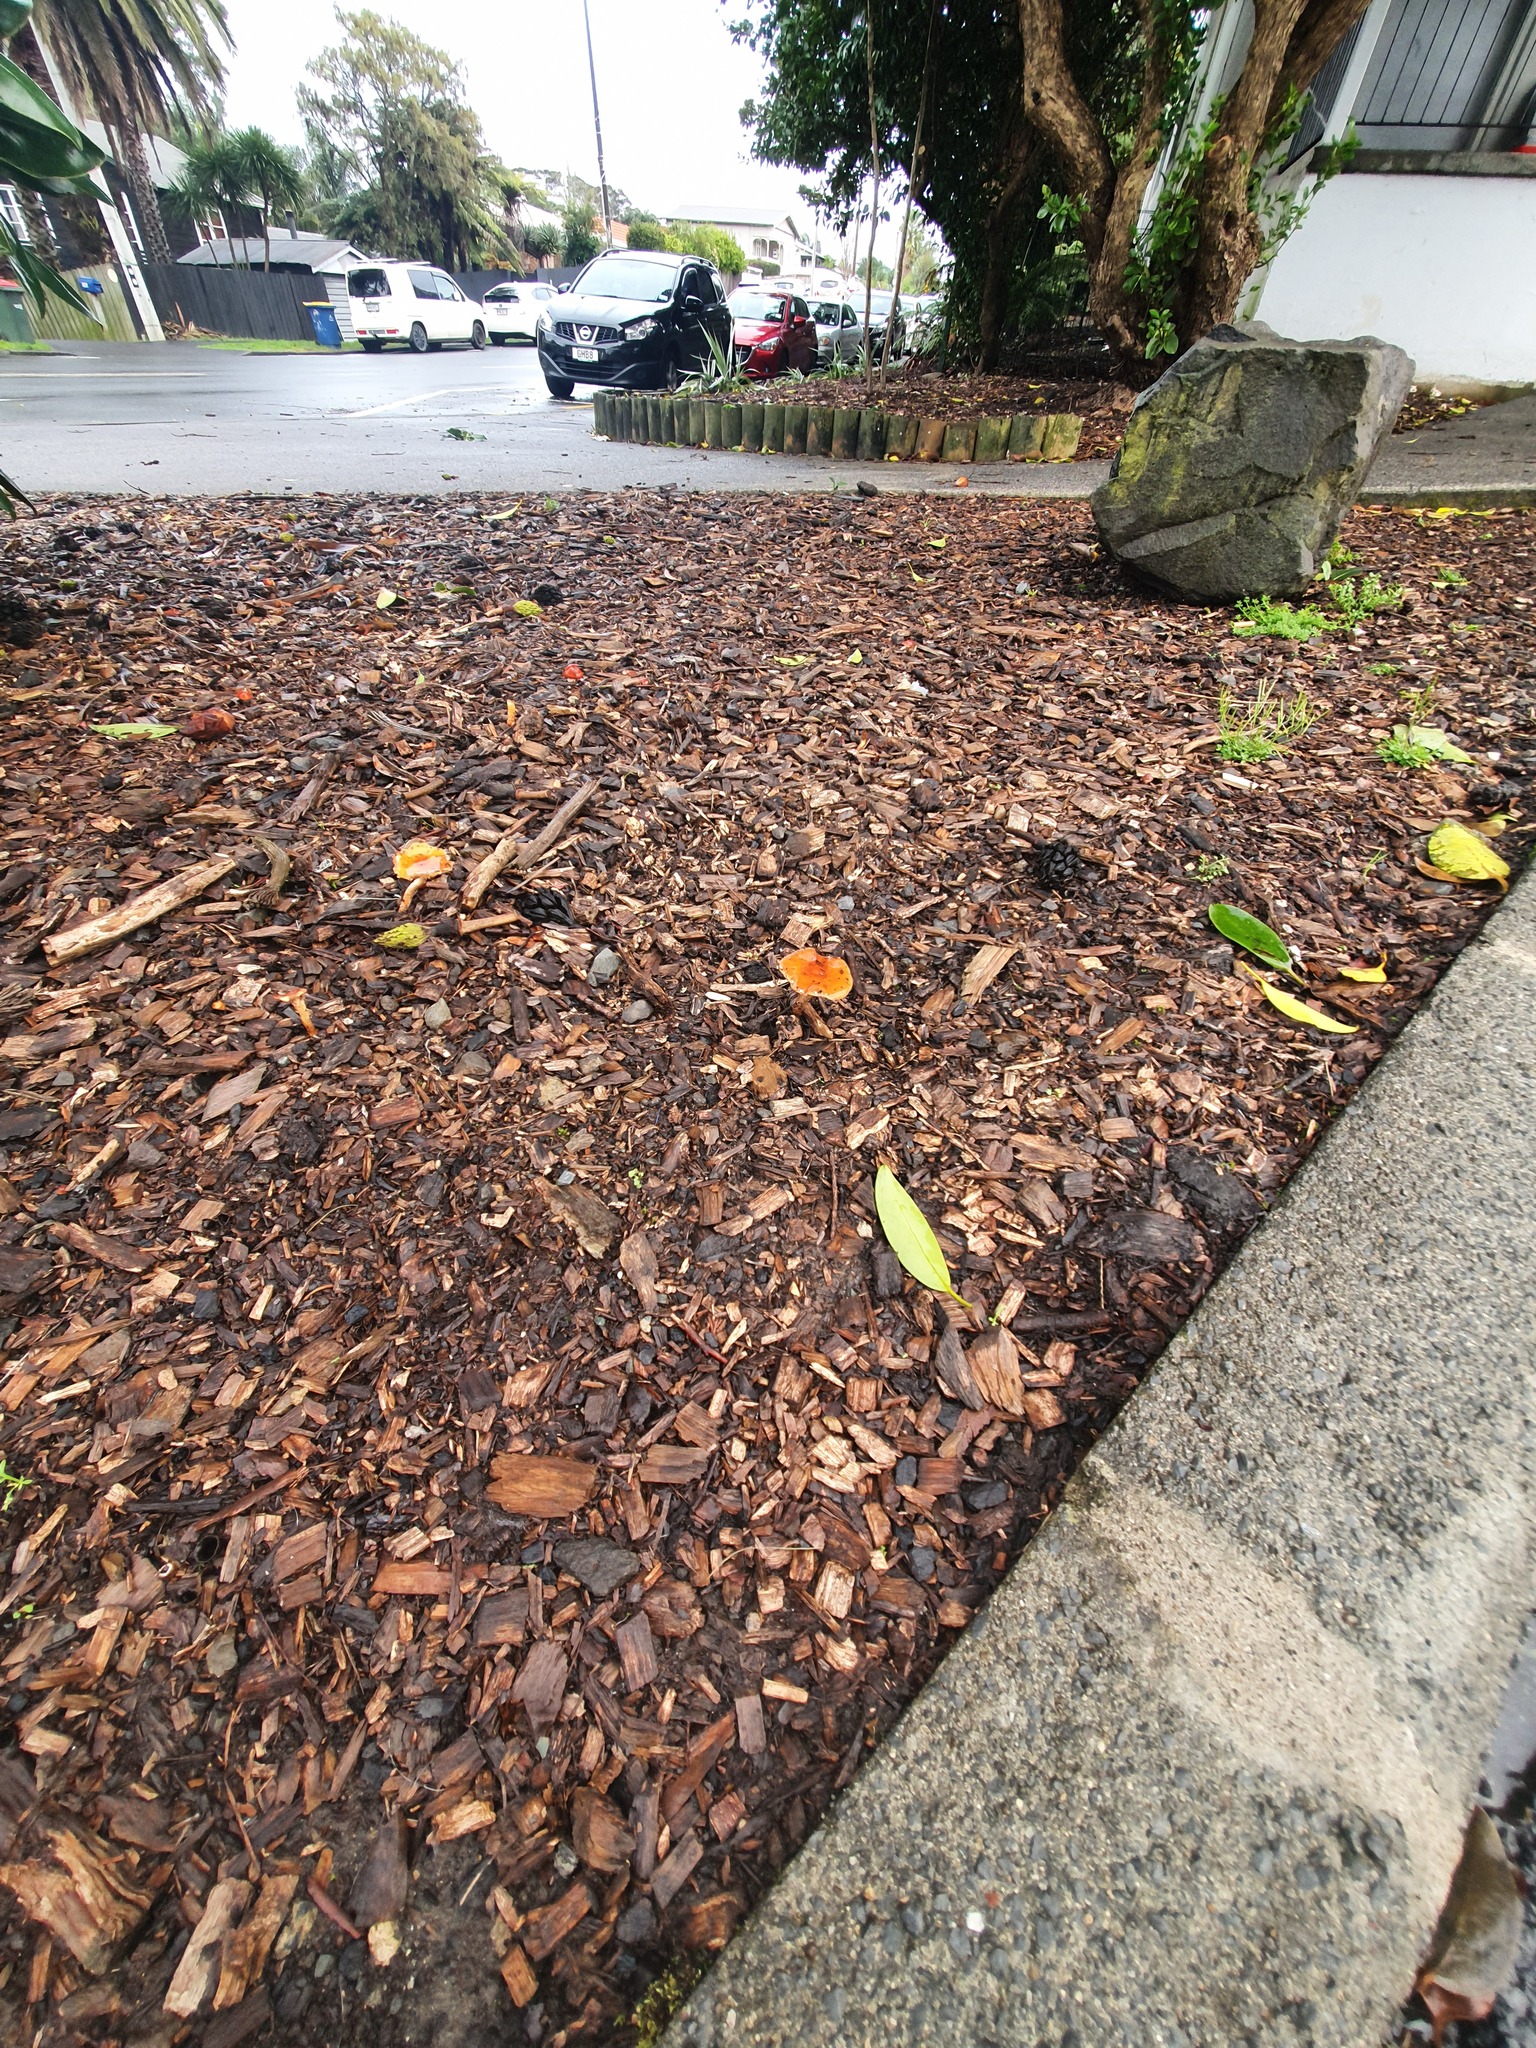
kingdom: Fungi
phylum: Basidiomycota
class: Agaricomycetes
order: Agaricales
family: Strophariaceae
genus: Leratiomyces
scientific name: Leratiomyces ceres
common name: Redlead roundhead
